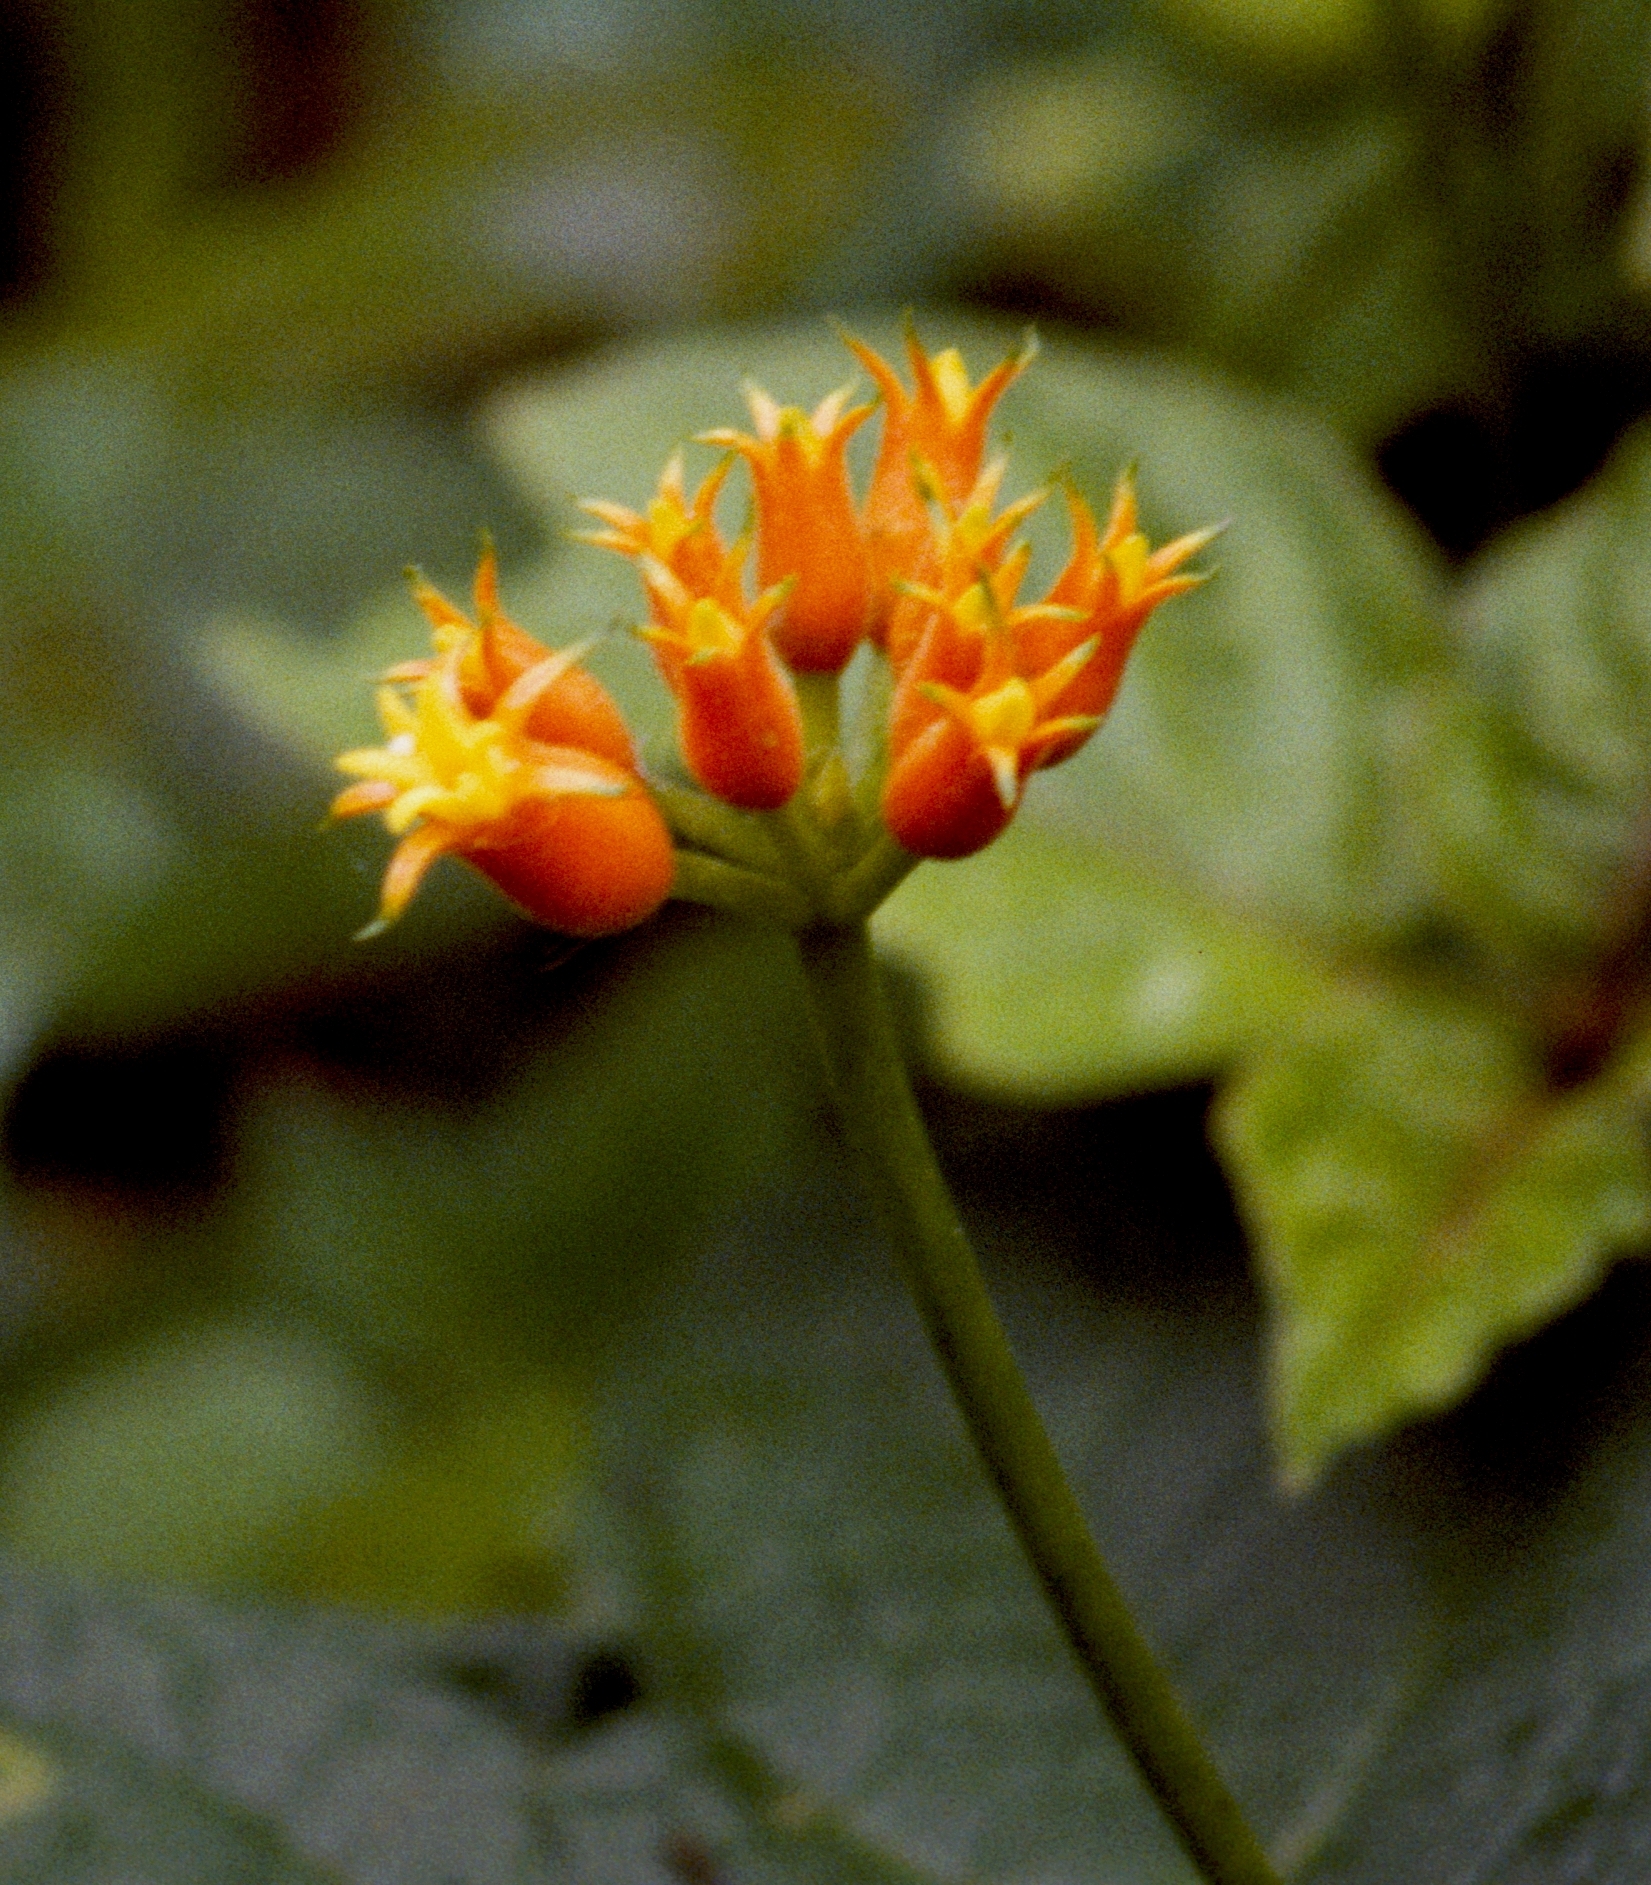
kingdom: Plantae
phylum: Tracheophyta
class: Magnoliopsida
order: Cucurbitales
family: Cucurbitaceae
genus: Gurania
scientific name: Gurania lobata
